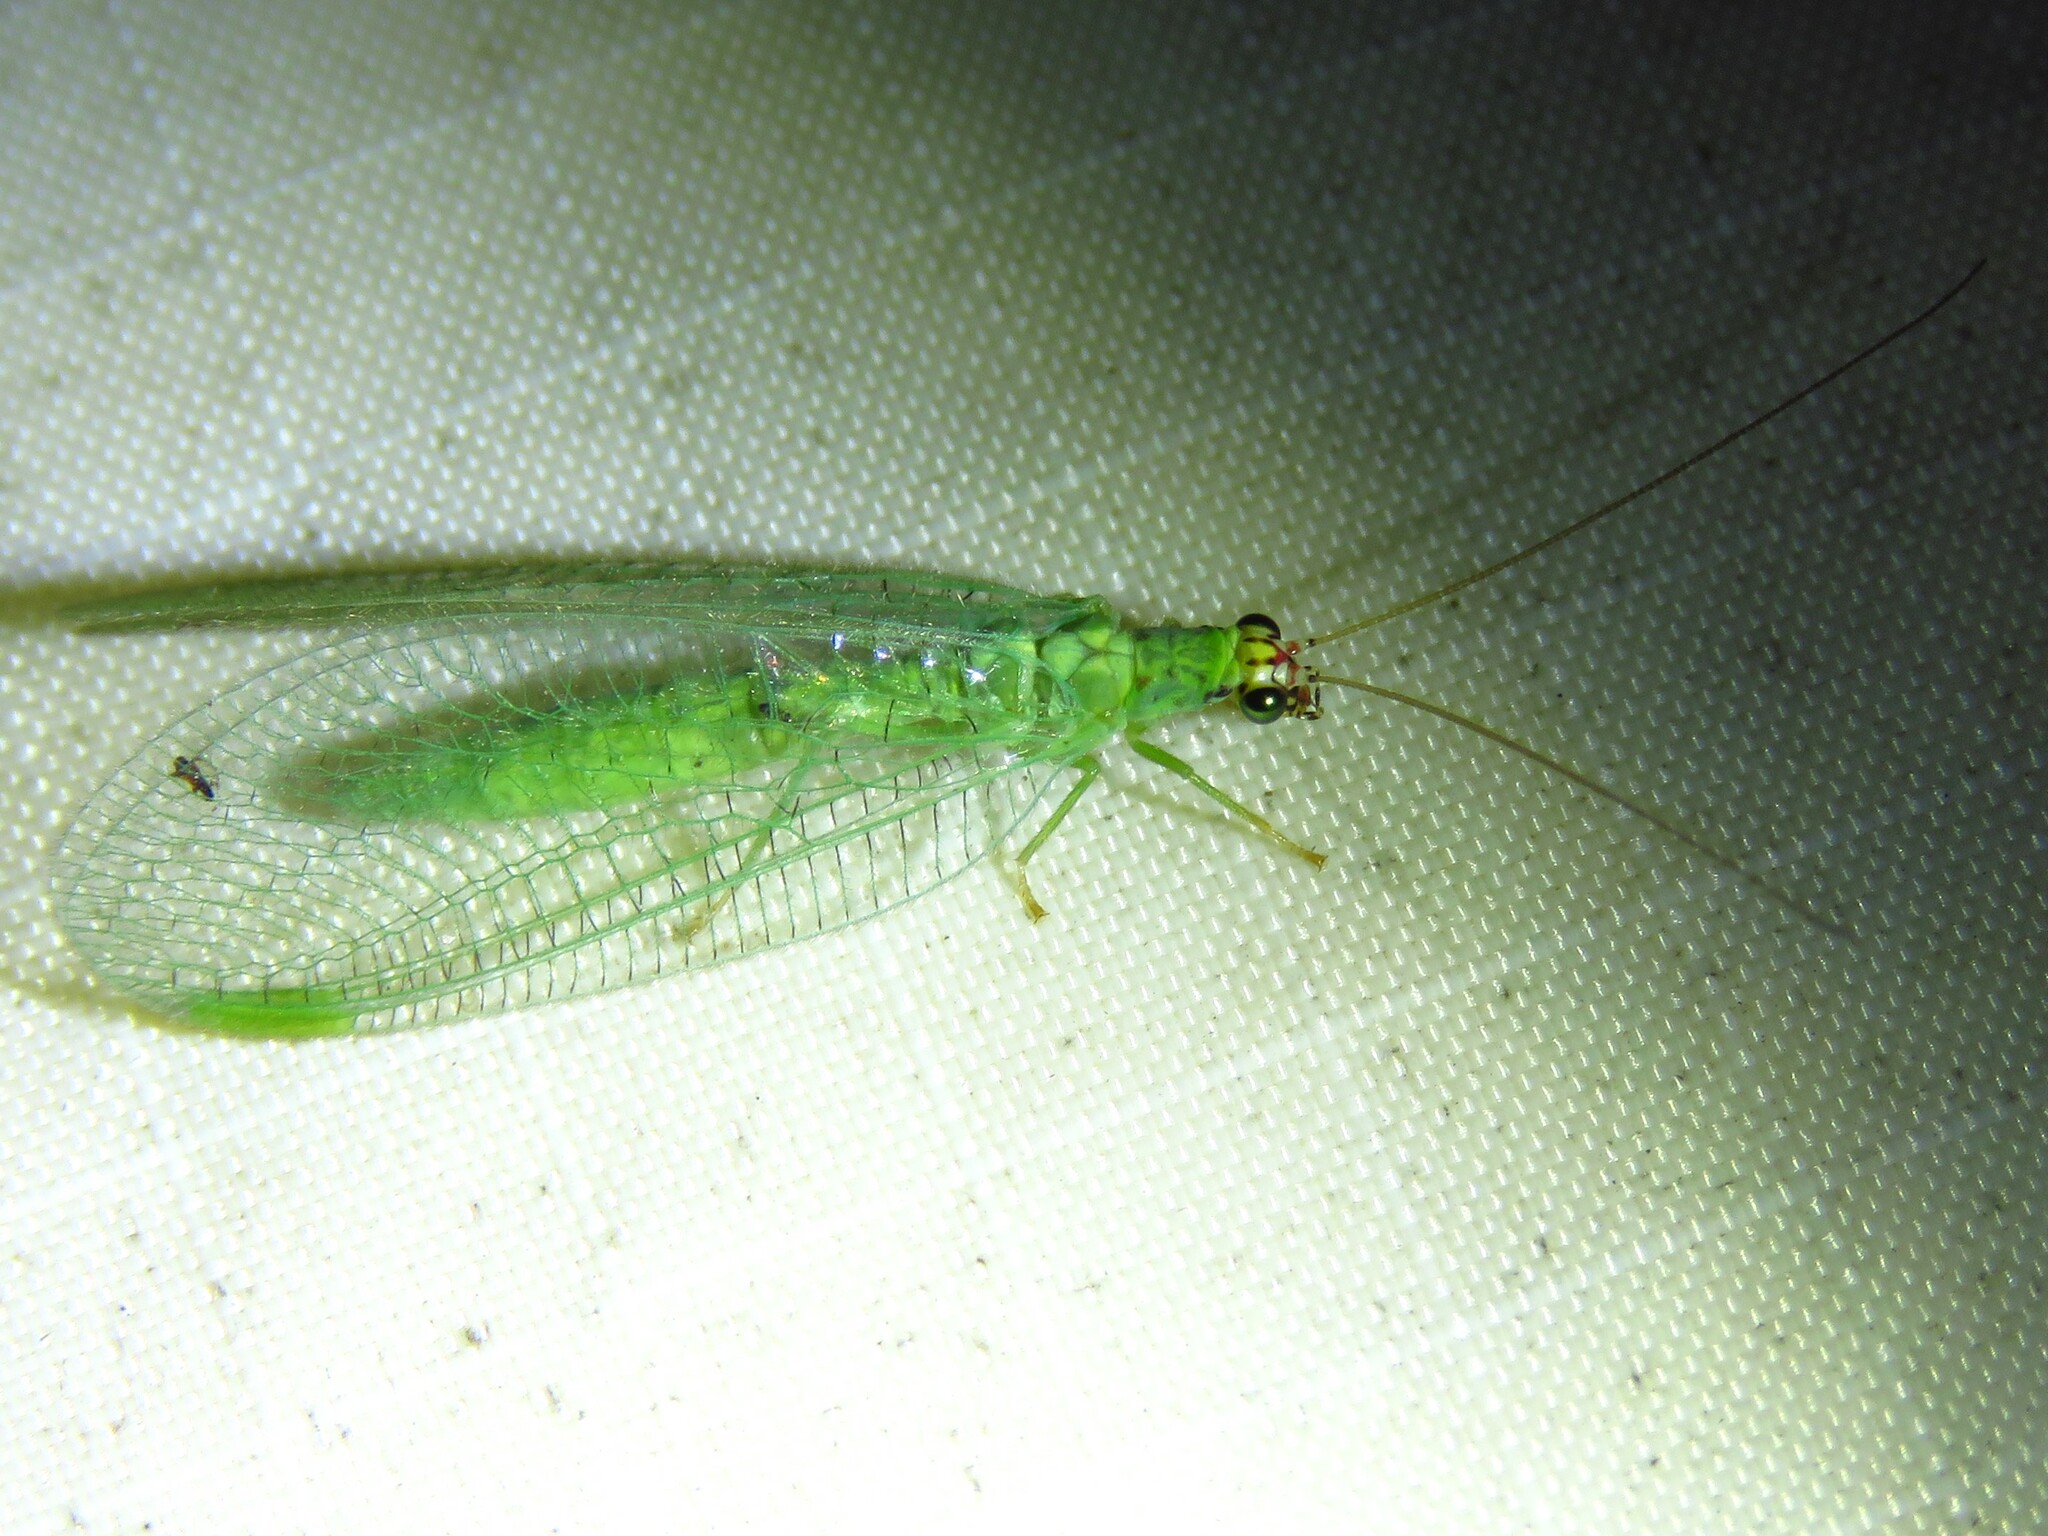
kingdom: Animalia
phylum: Arthropoda
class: Insecta
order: Neuroptera
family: Chrysopidae
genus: Chrysopa
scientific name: Chrysopa oculata
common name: Golden-eyed lacewing
